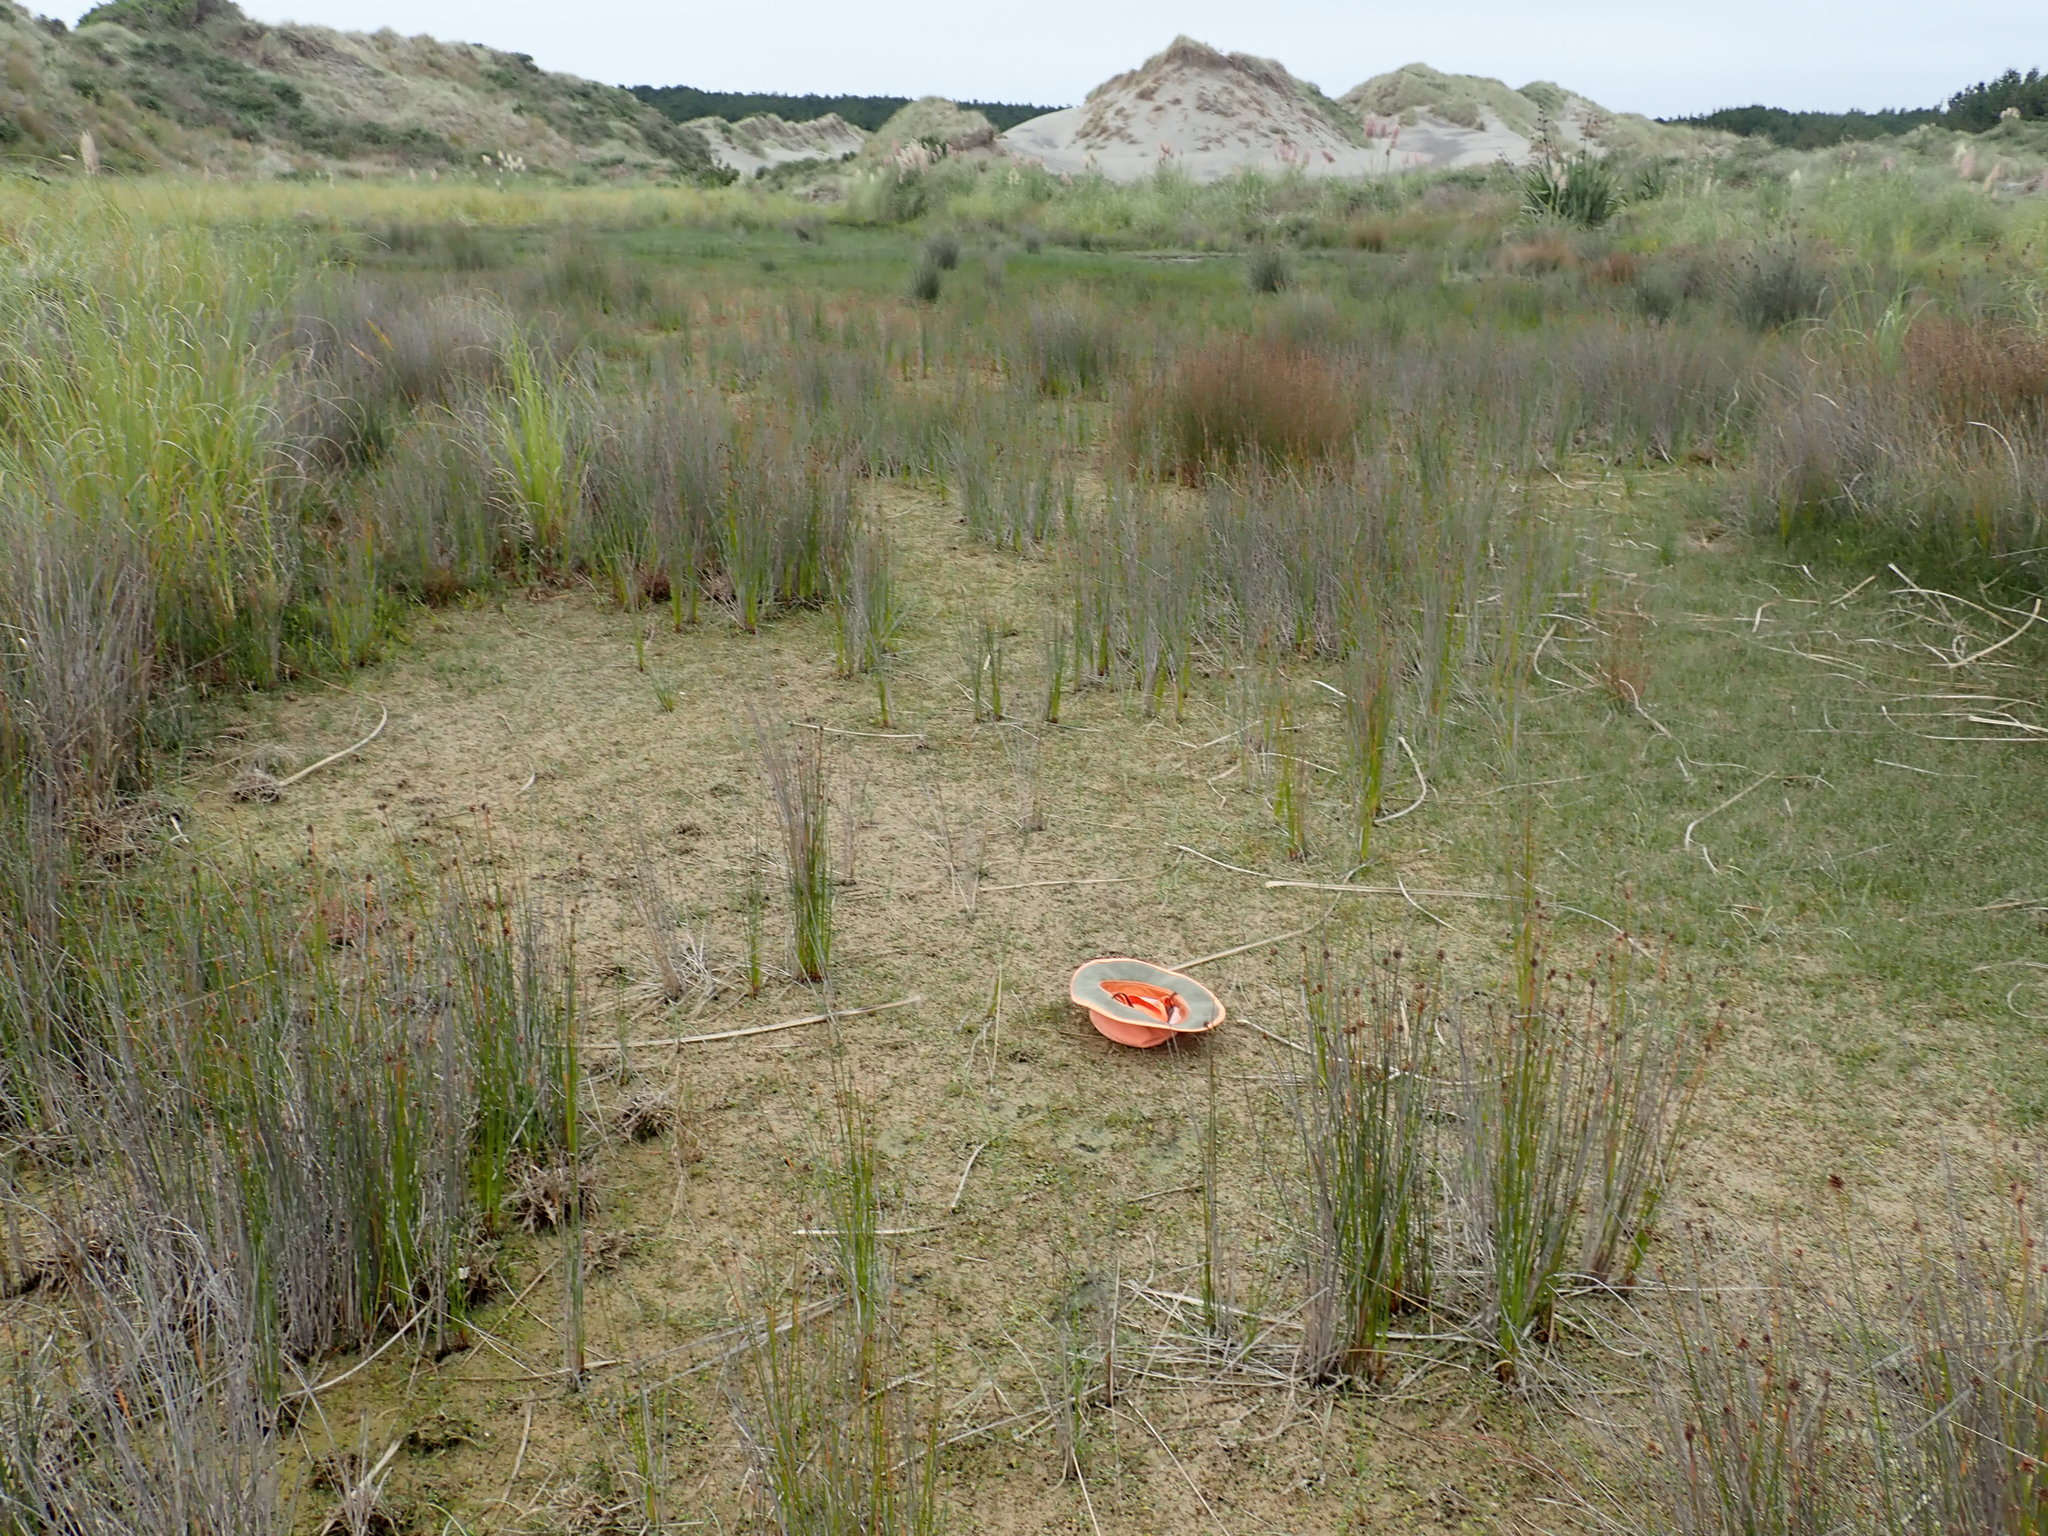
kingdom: Animalia
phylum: Mollusca
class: Gastropoda
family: Physidae
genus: Physella
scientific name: Physella acuta
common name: European physa
